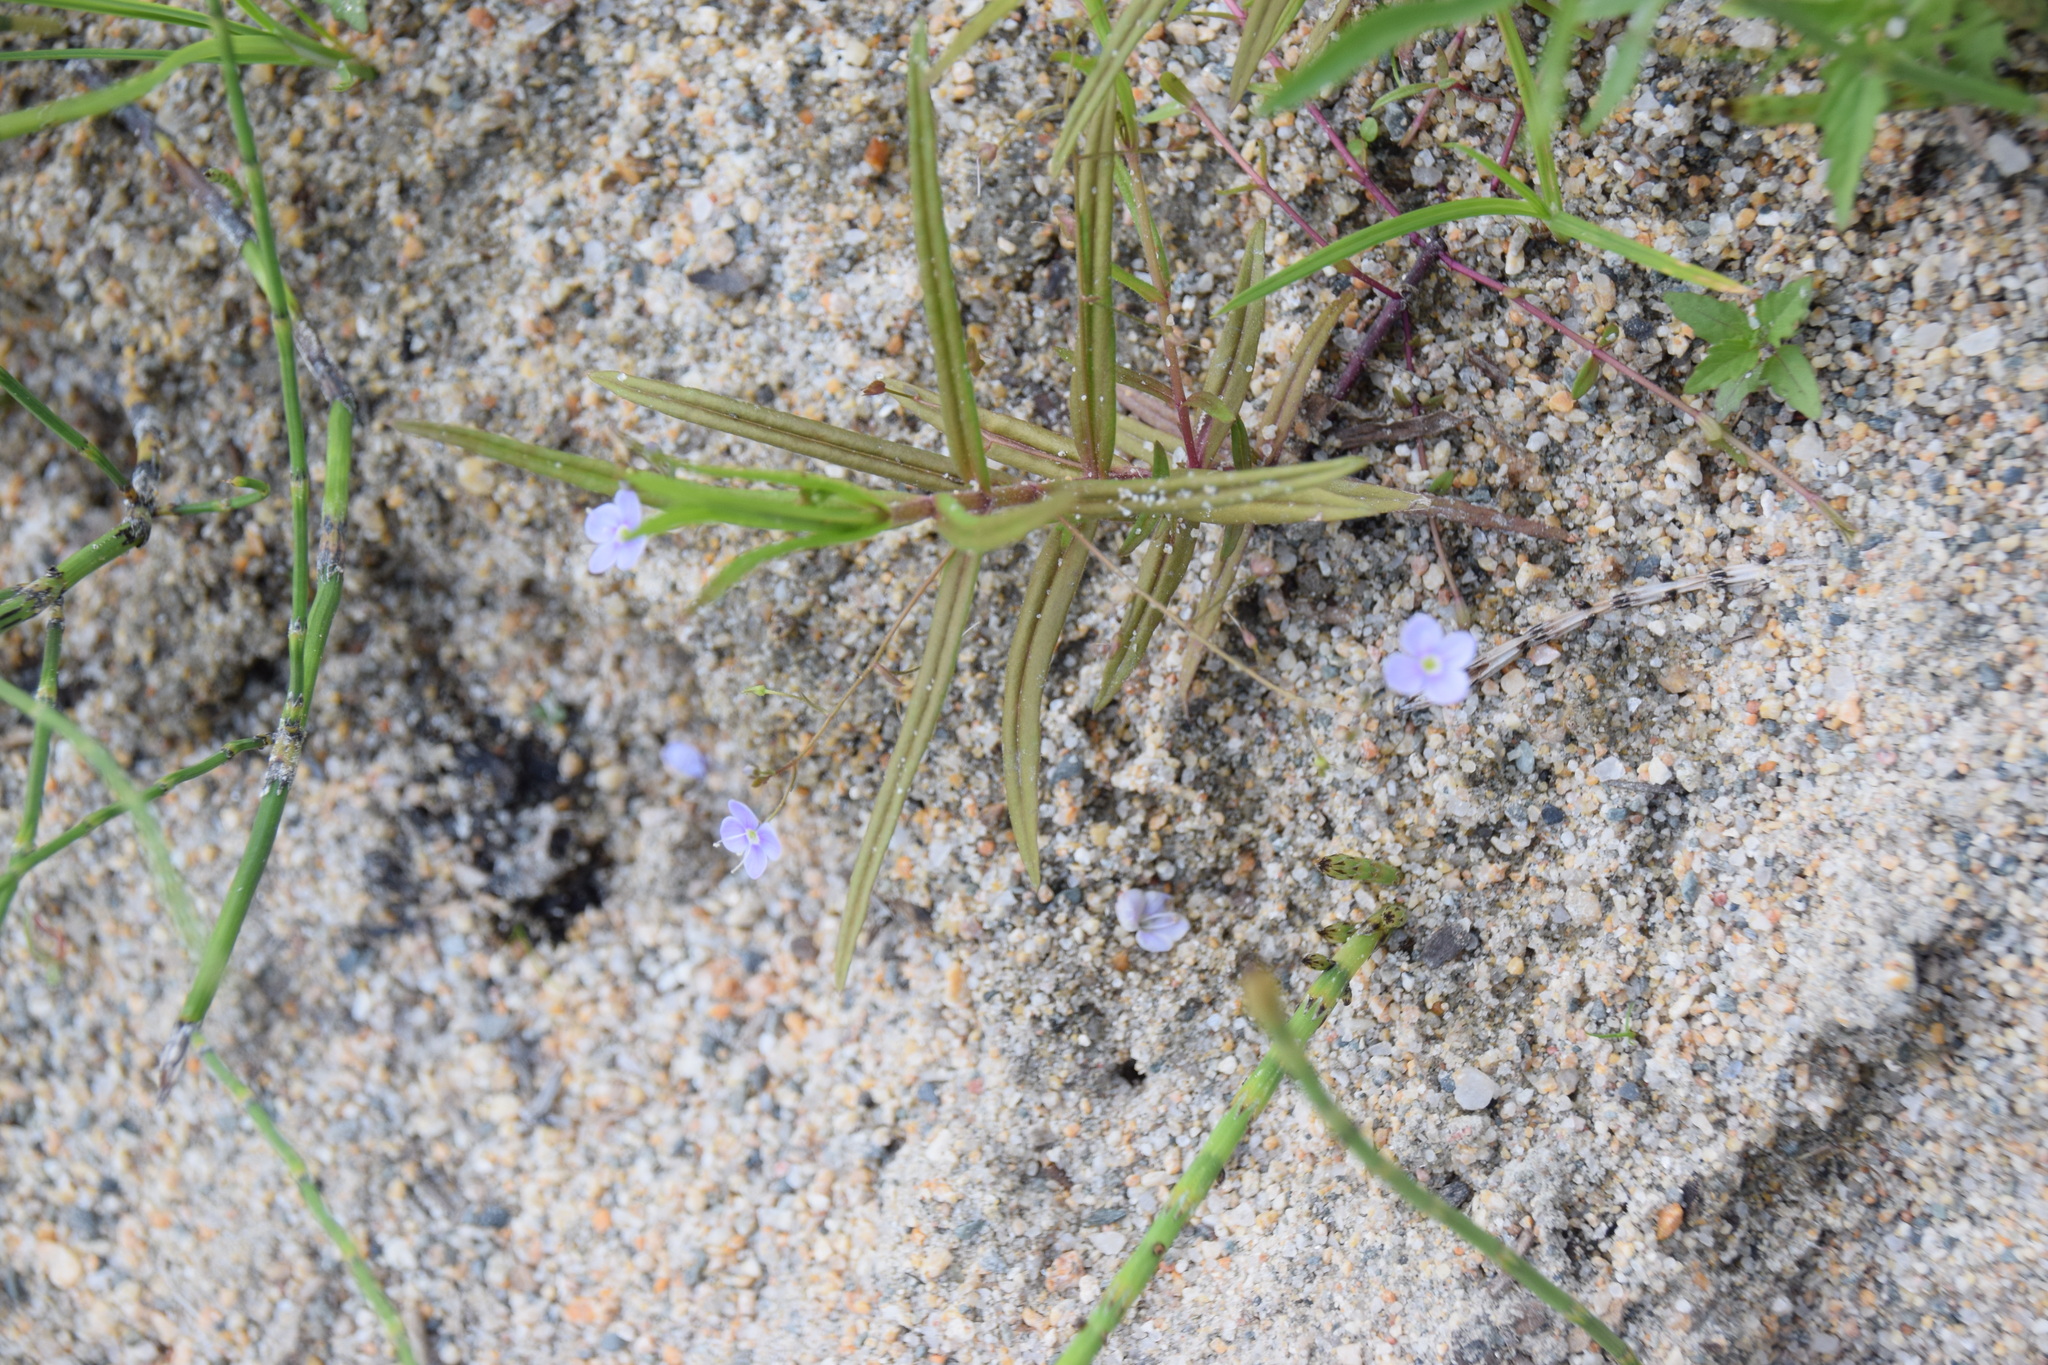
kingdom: Plantae
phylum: Tracheophyta
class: Magnoliopsida
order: Lamiales
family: Plantaginaceae
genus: Veronica
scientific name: Veronica scutellata
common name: Marsh speedwell
